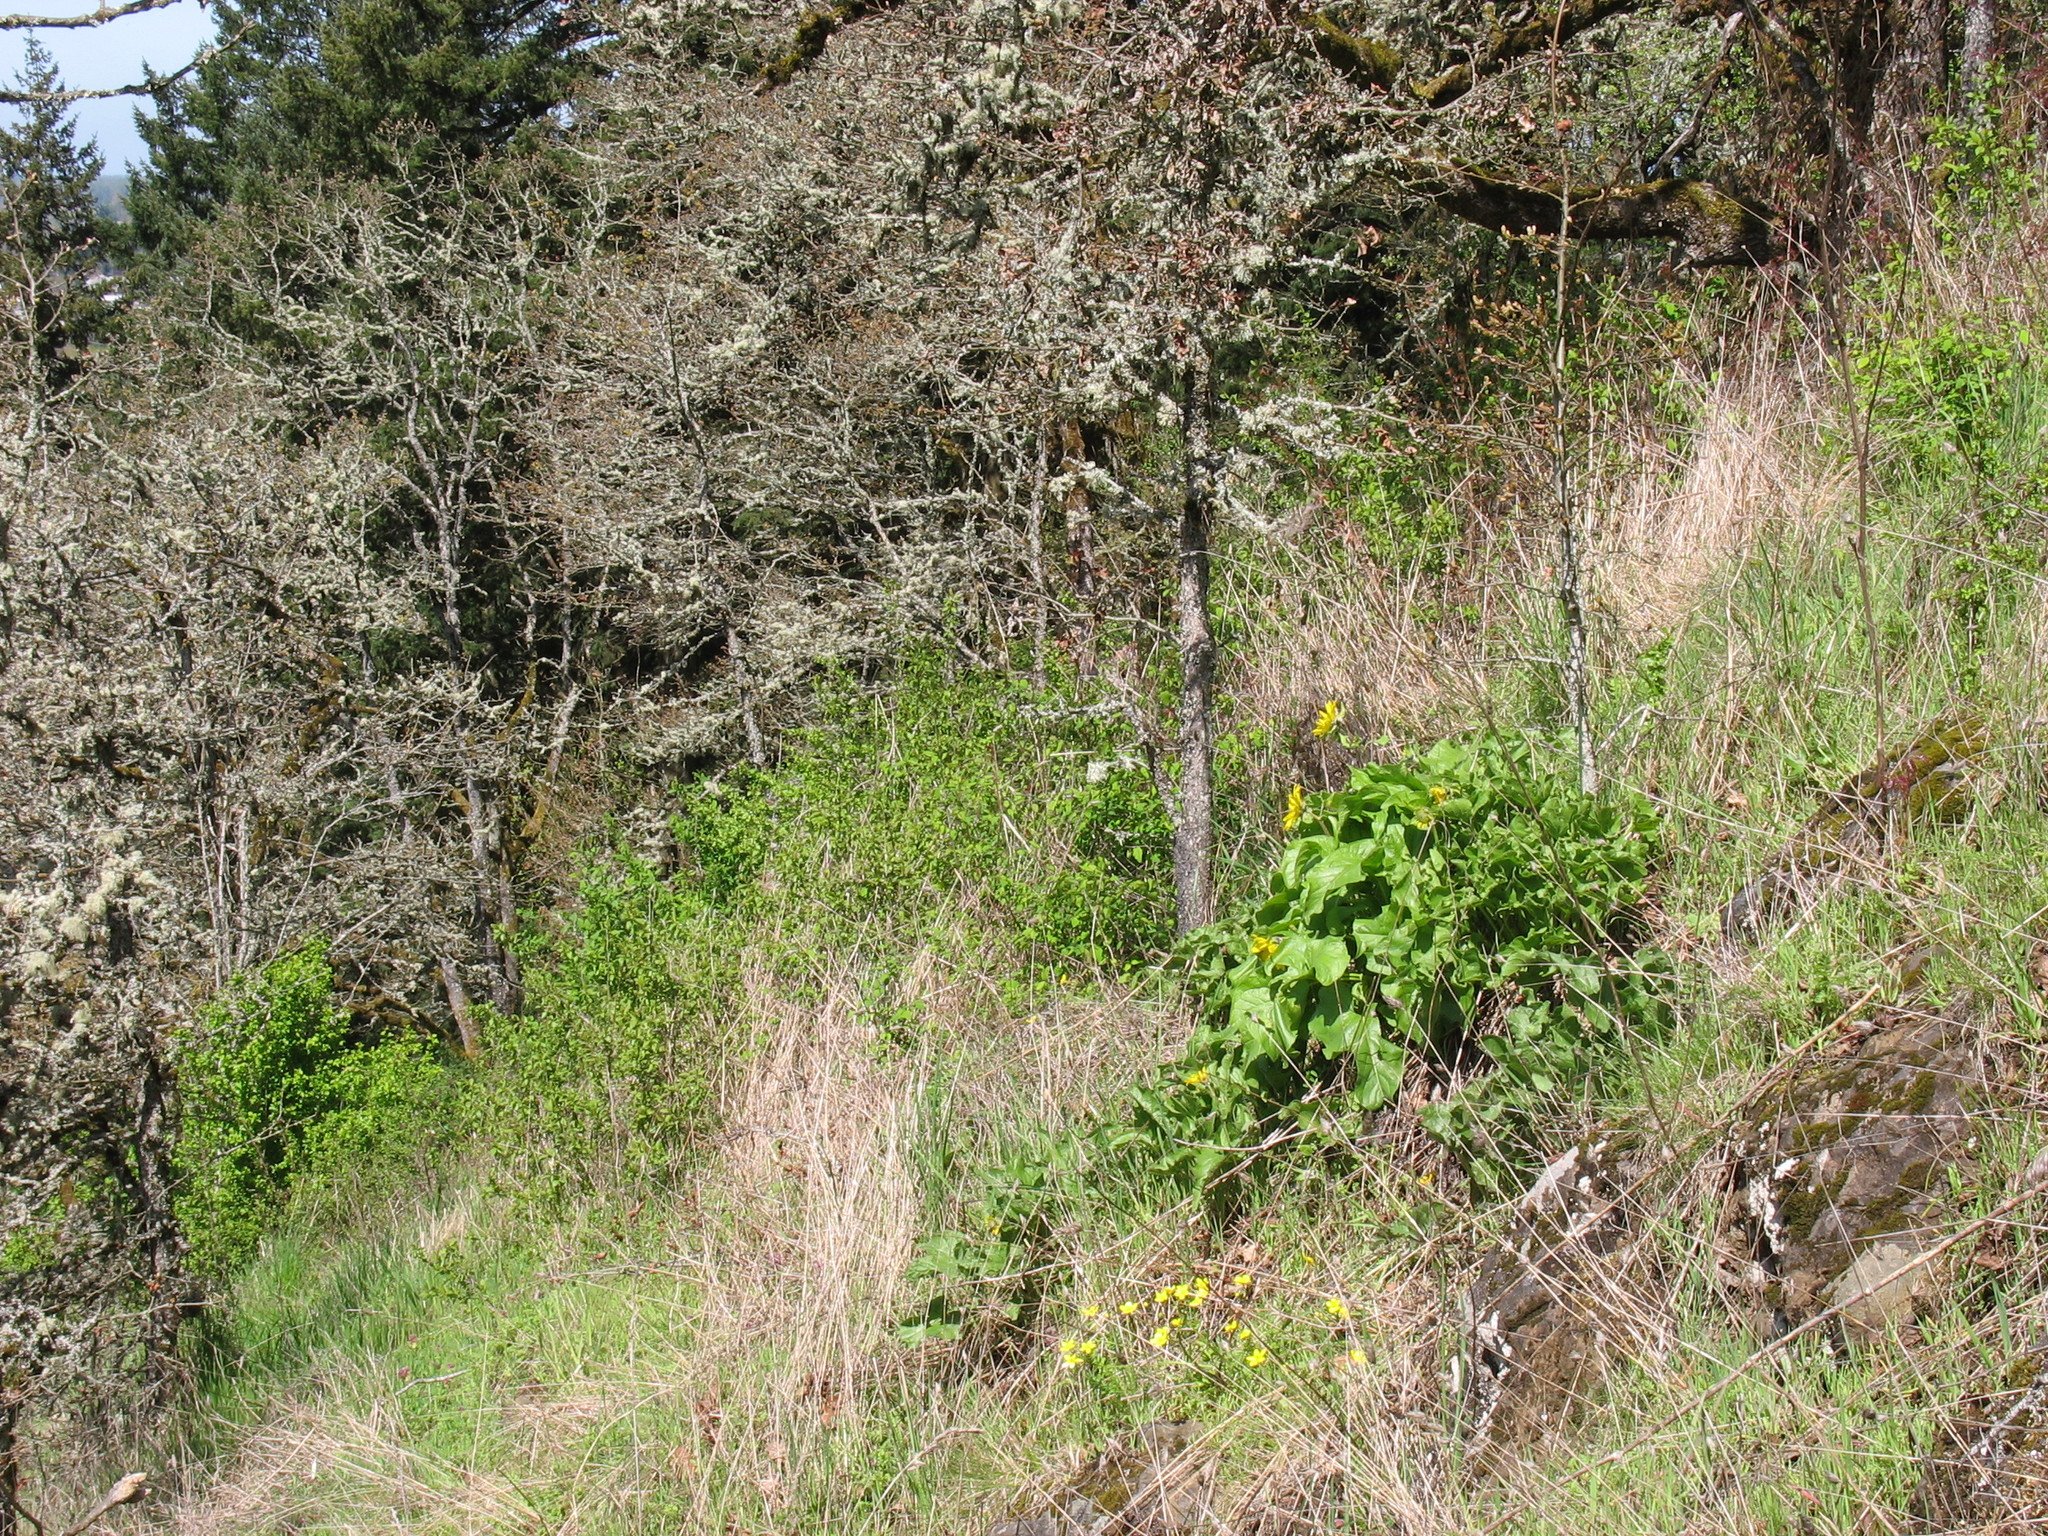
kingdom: Plantae
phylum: Tracheophyta
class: Magnoliopsida
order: Asterales
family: Asteraceae
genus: Balsamorhiza
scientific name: Balsamorhiza deltoidea
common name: Deltoid balsamroot
